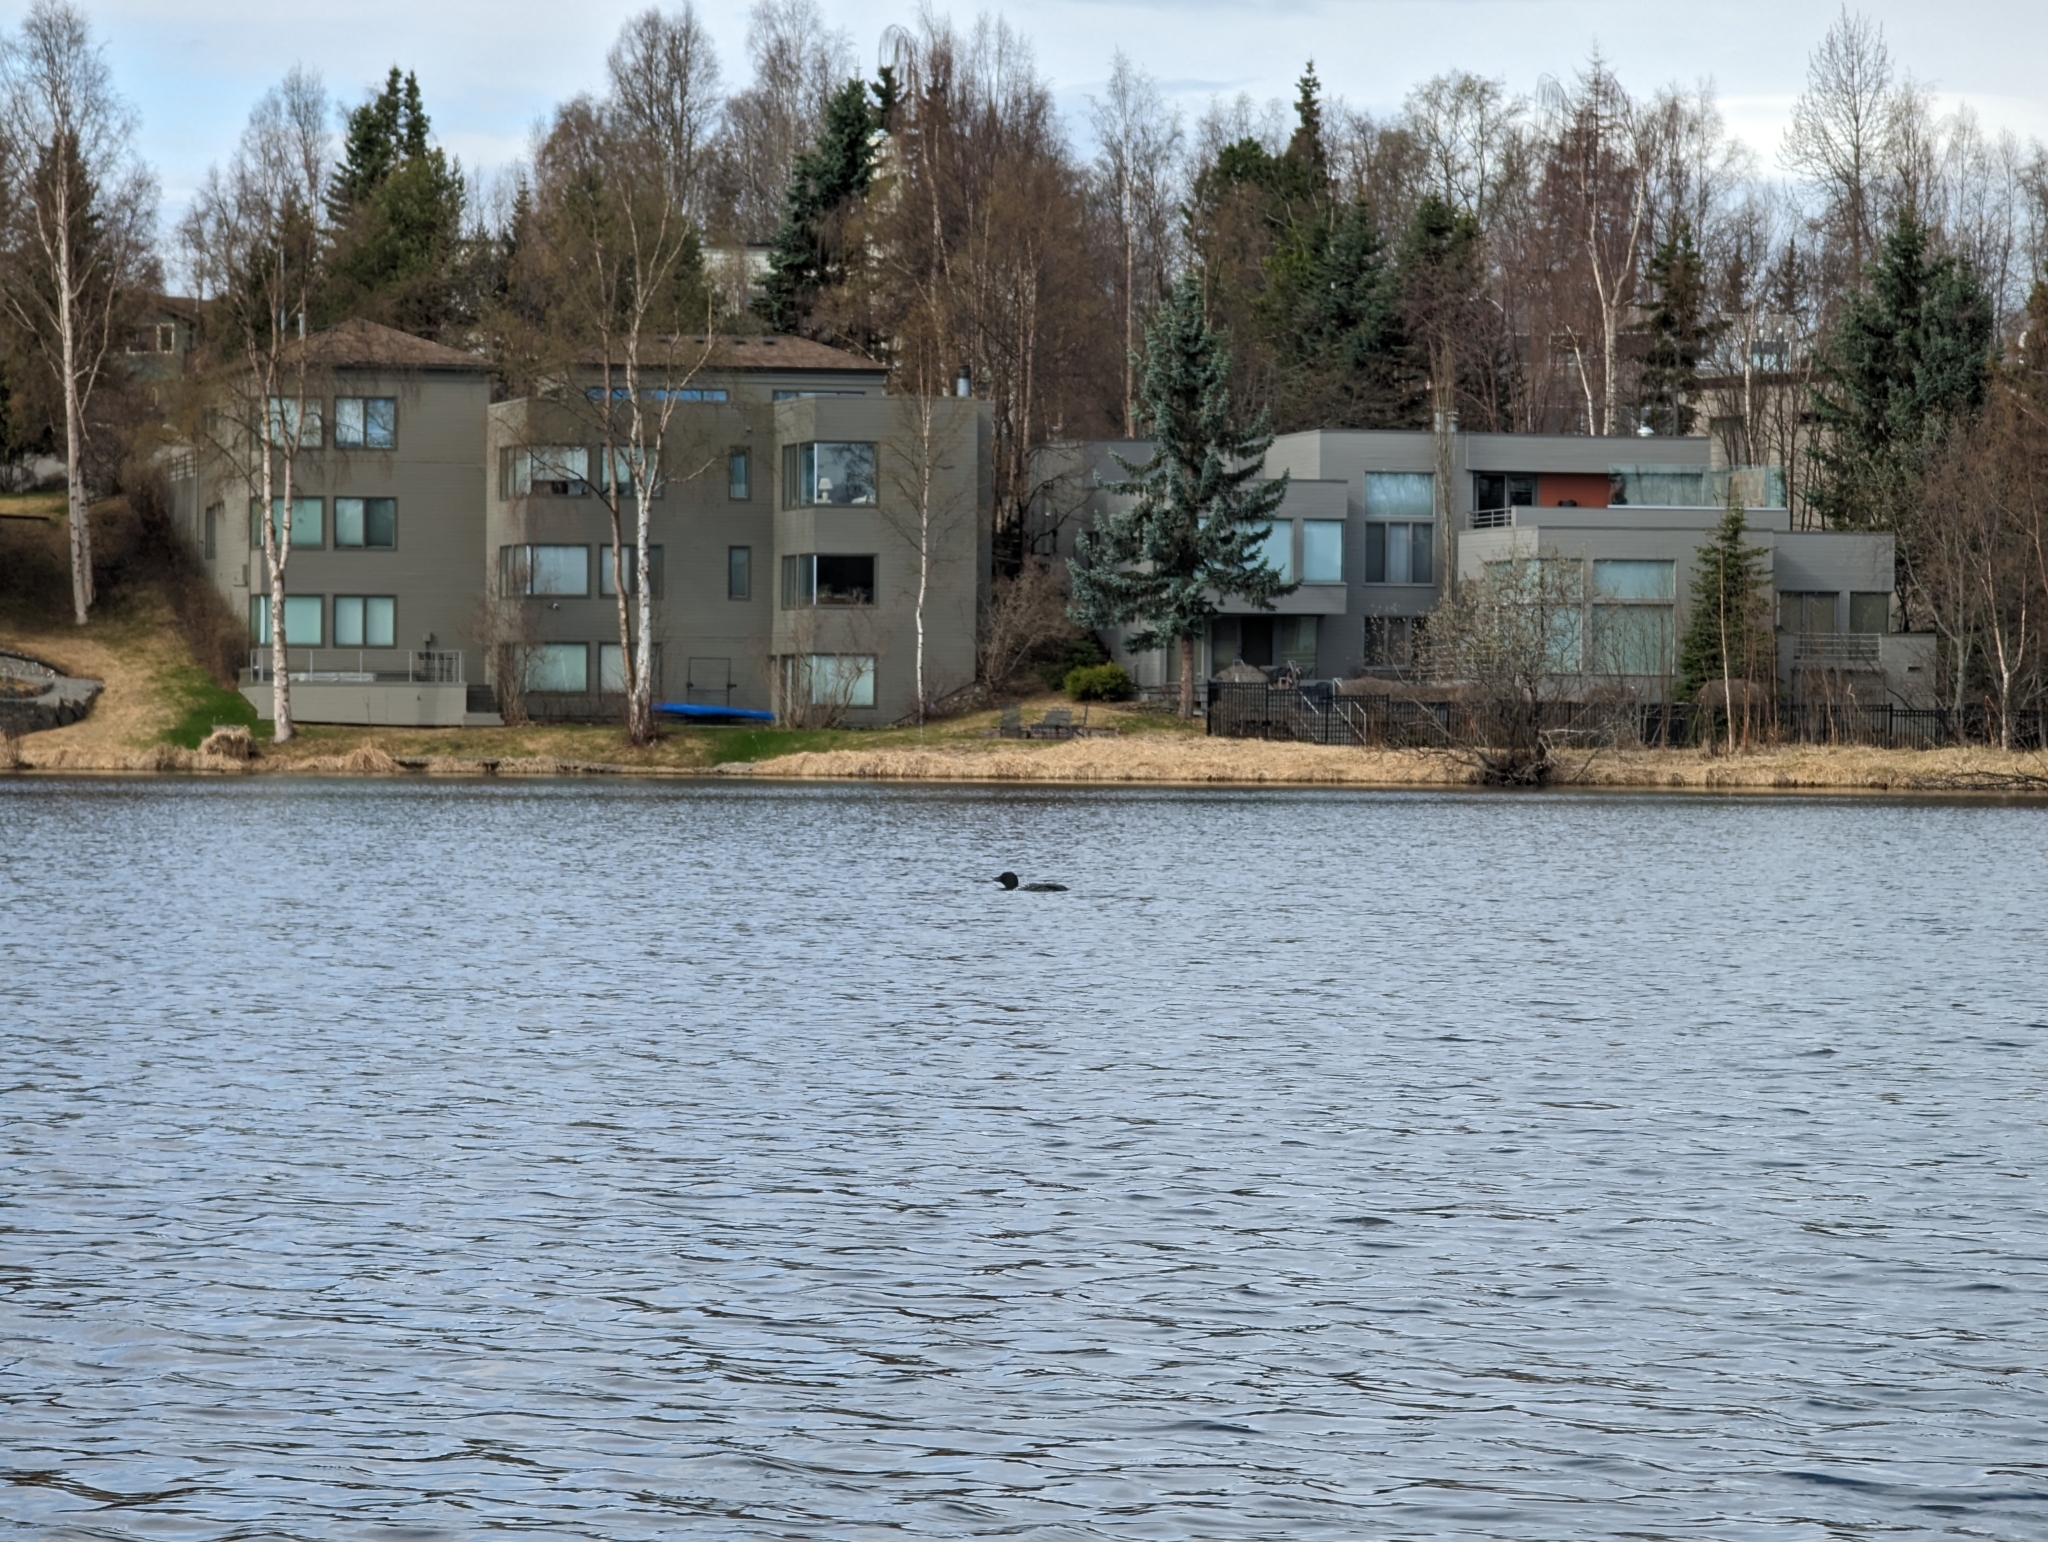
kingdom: Animalia
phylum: Chordata
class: Aves
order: Gaviiformes
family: Gaviidae
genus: Gavia
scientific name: Gavia immer
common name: Common loon
